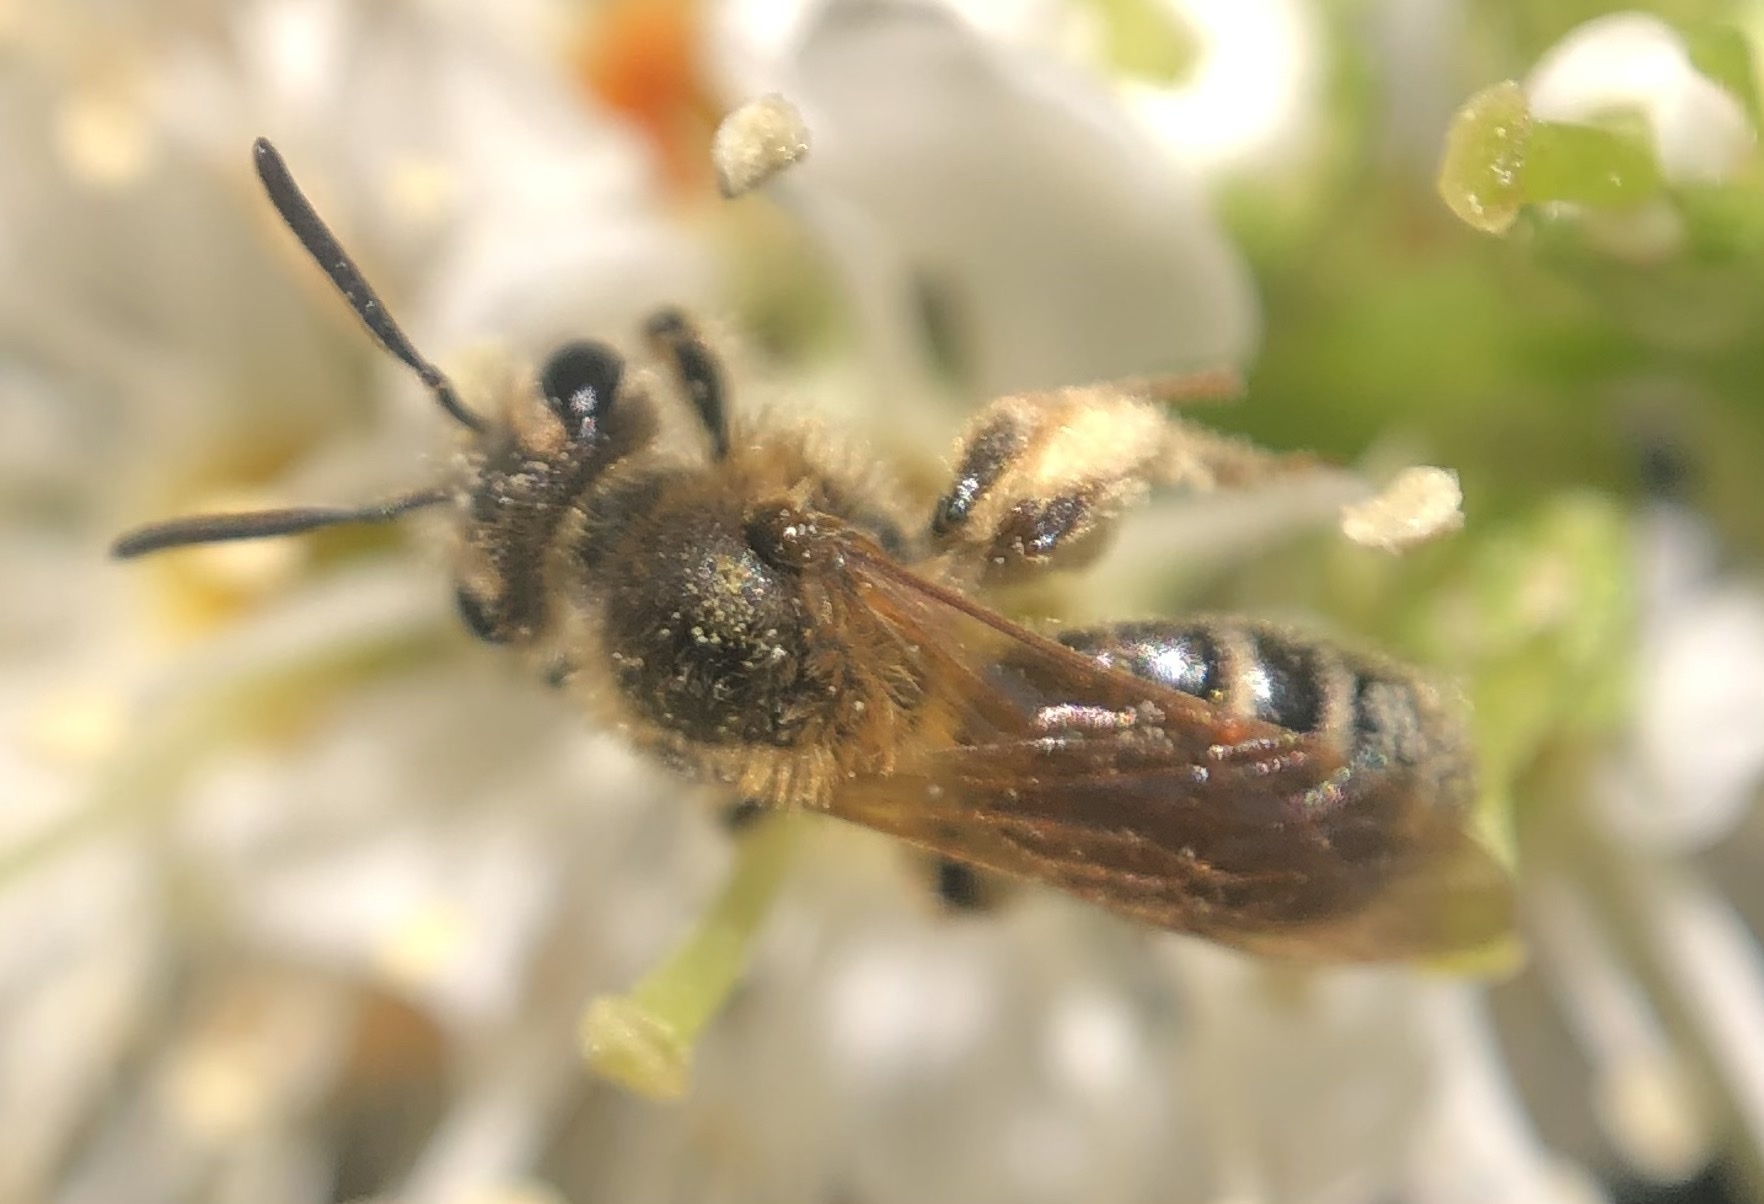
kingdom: Animalia
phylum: Arthropoda
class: Insecta
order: Hymenoptera
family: Andrenidae
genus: Andrena
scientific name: Andrena miserabilis
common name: Miserable mining bee
